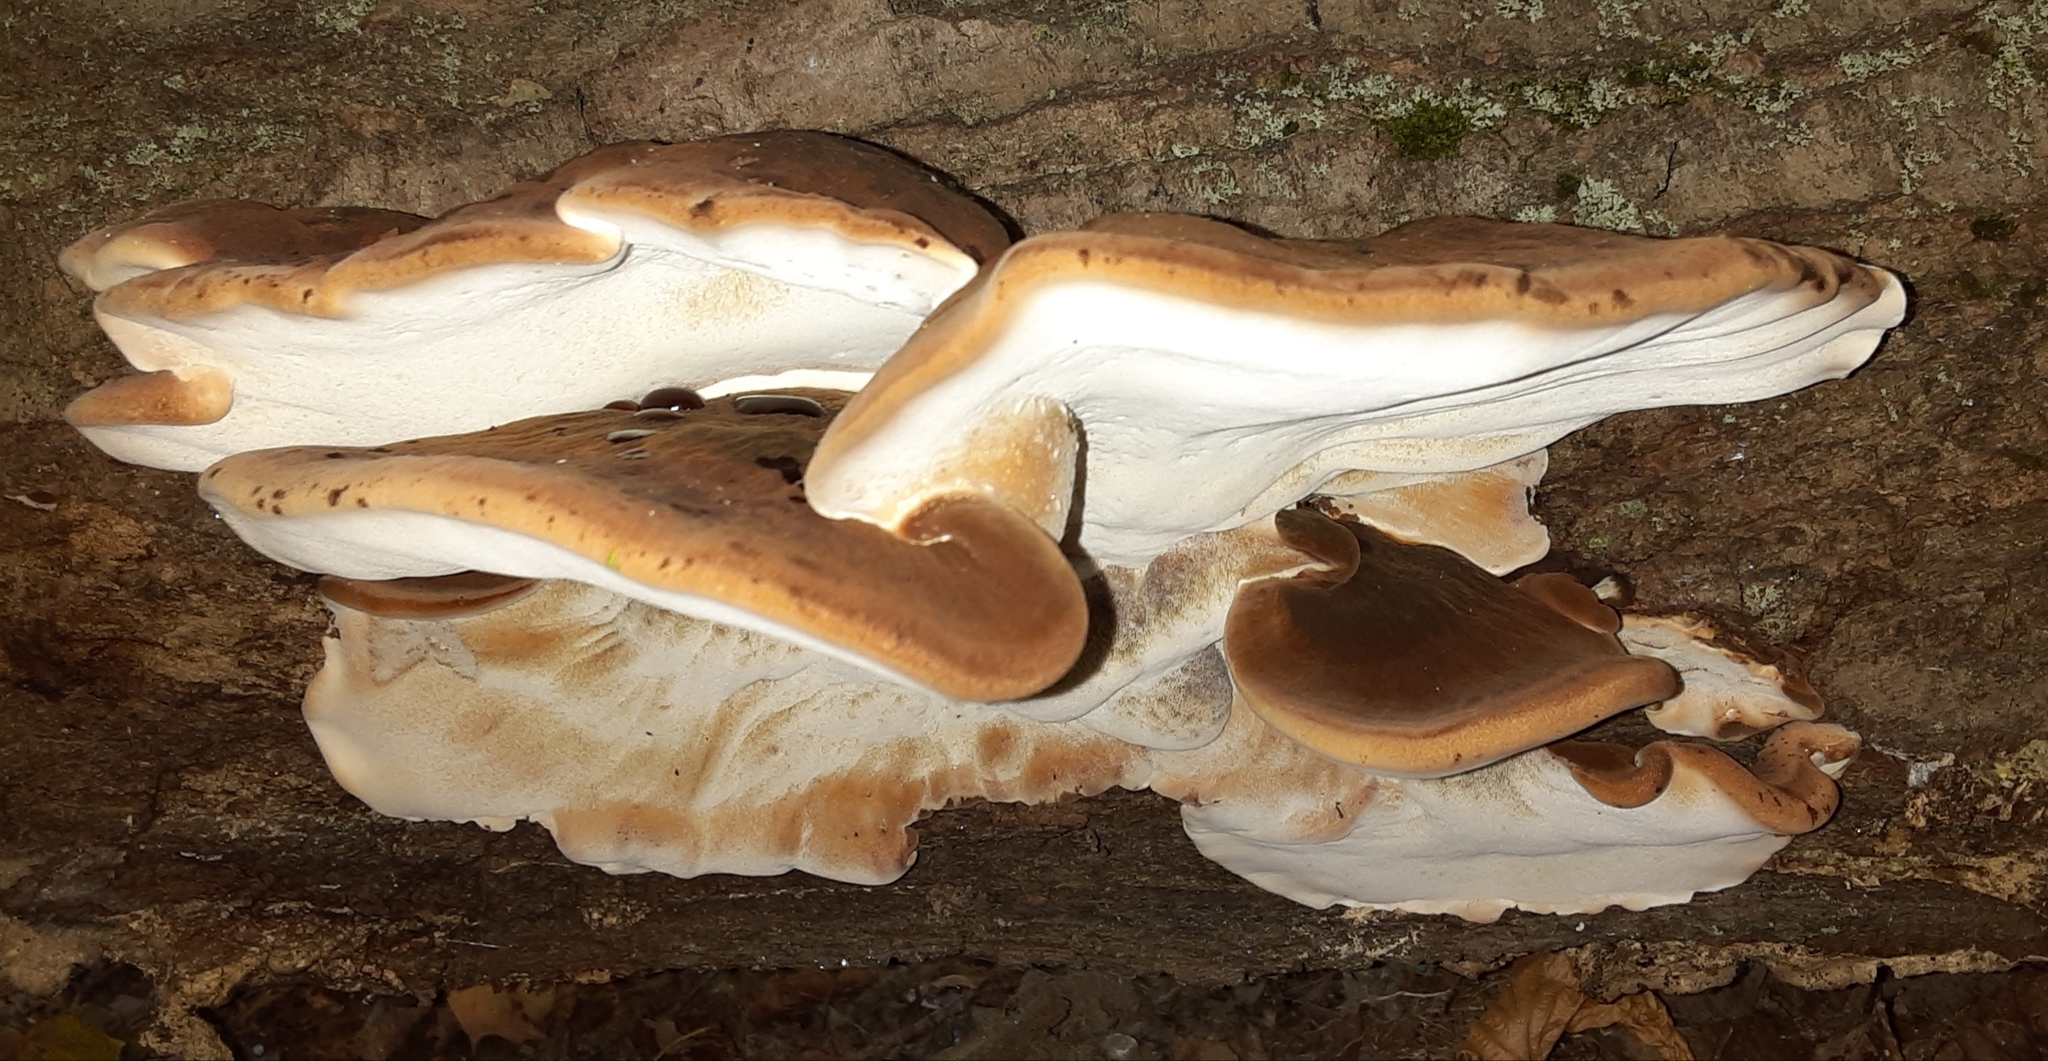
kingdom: Fungi
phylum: Basidiomycota
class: Agaricomycetes
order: Polyporales
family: Ischnodermataceae
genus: Ischnoderma
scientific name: Ischnoderma resinosum
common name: Resinous polypore
